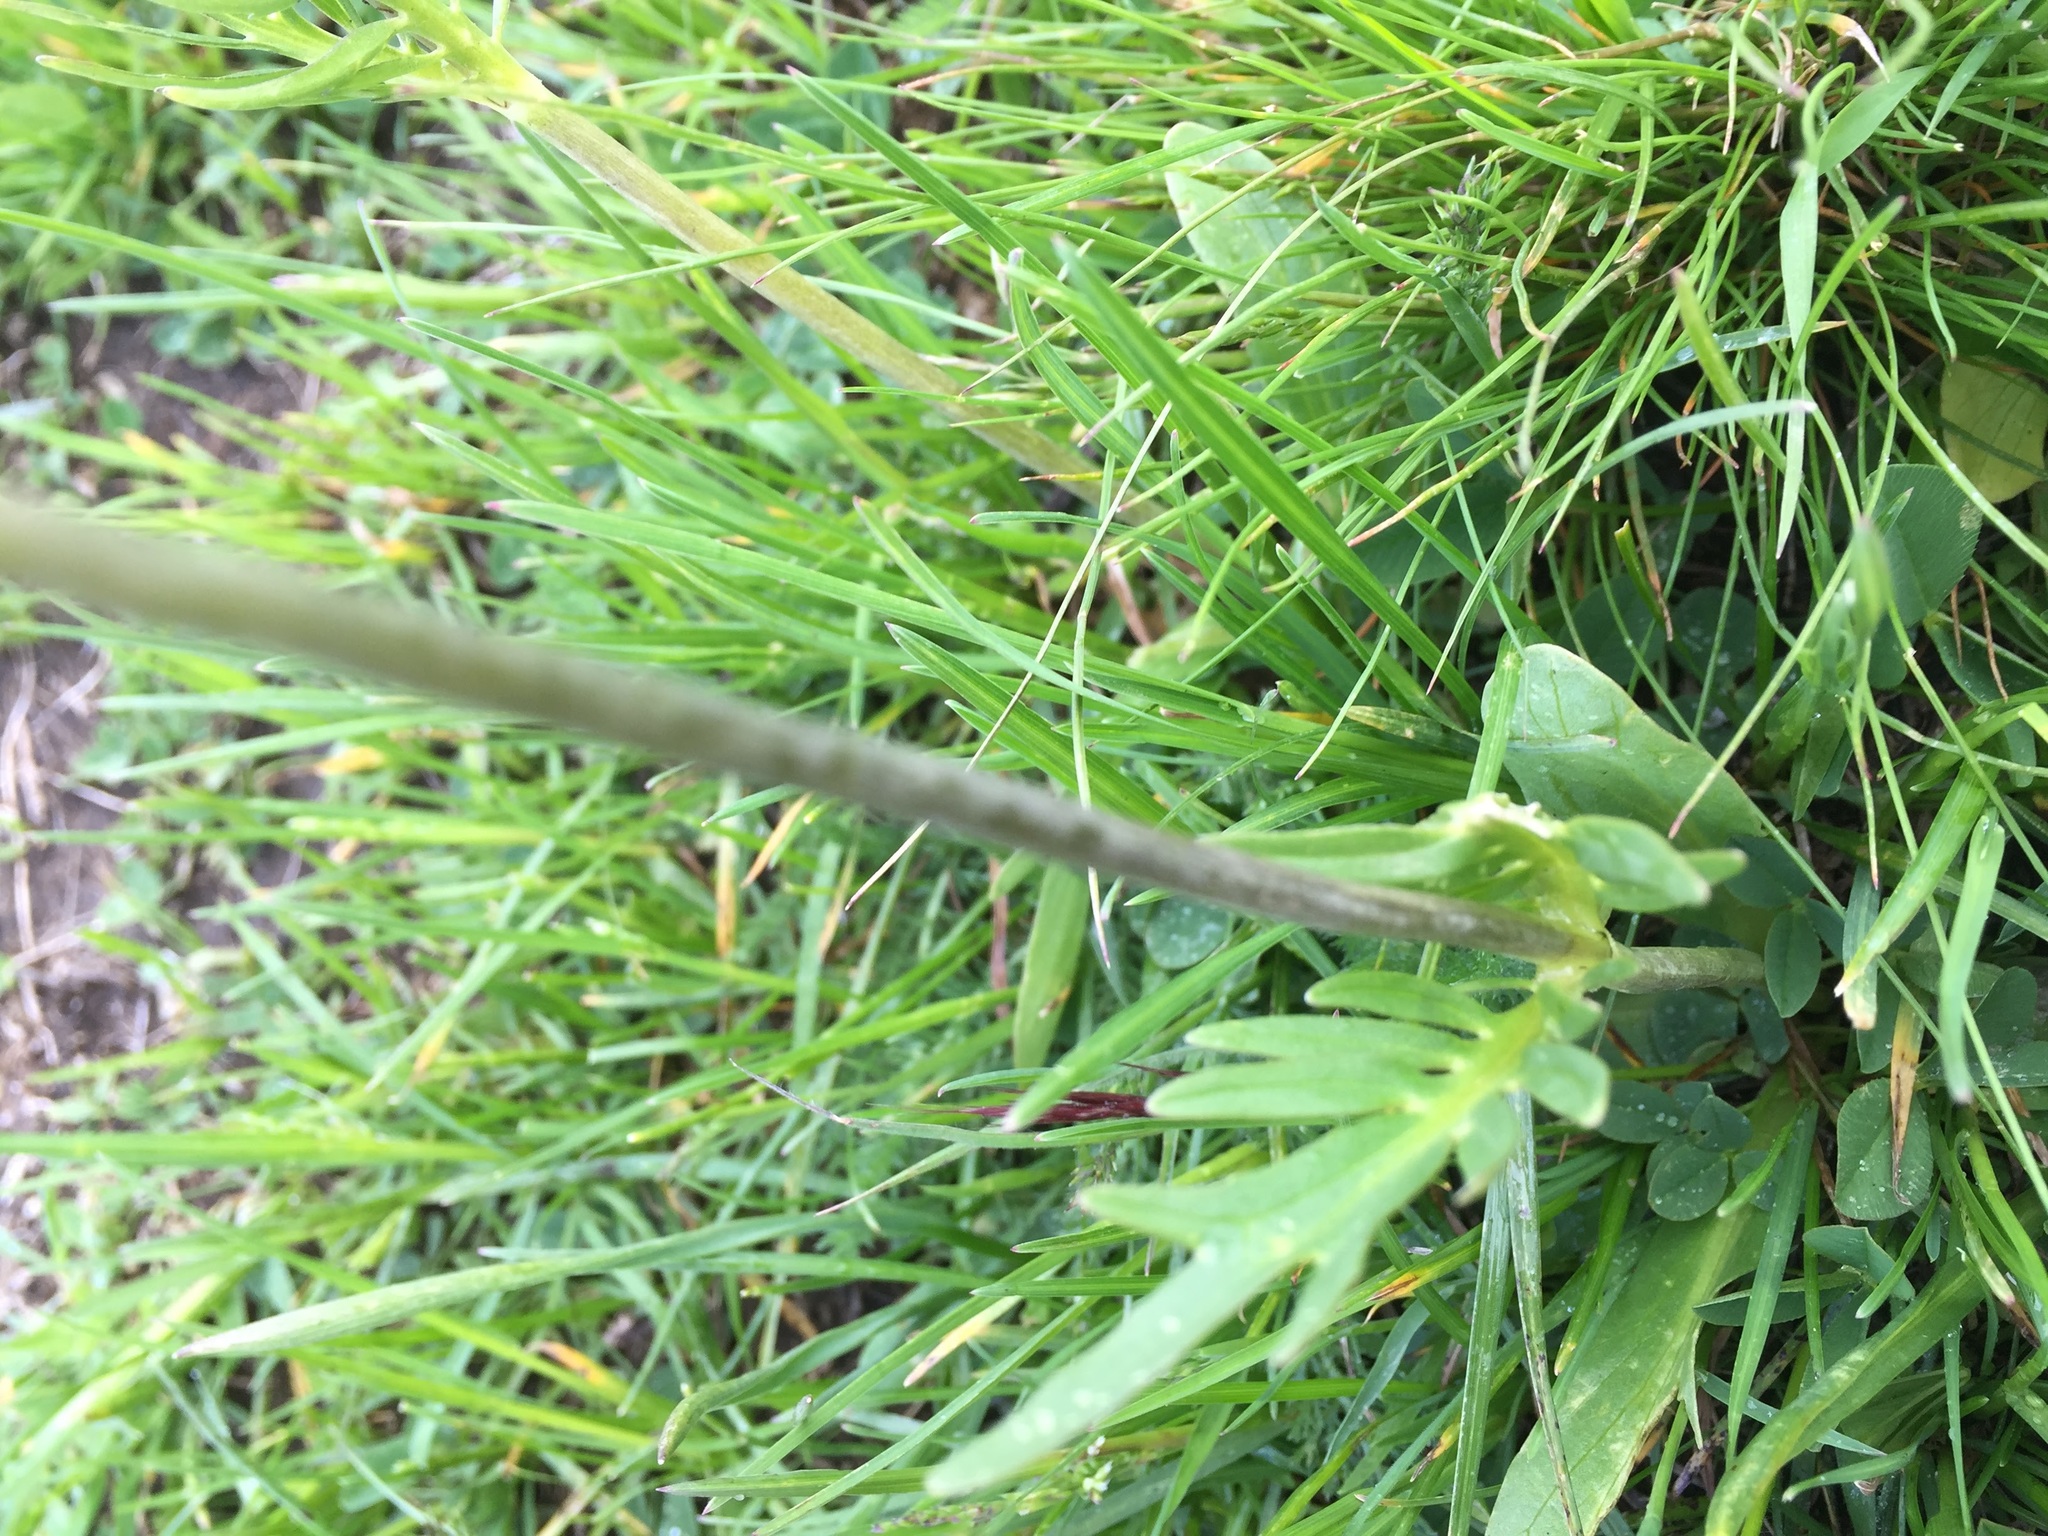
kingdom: Plantae
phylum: Tracheophyta
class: Magnoliopsida
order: Dipsacales
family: Caprifoliaceae
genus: Valeriana
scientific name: Valeriana tuberosa
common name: Tuberous valerian
